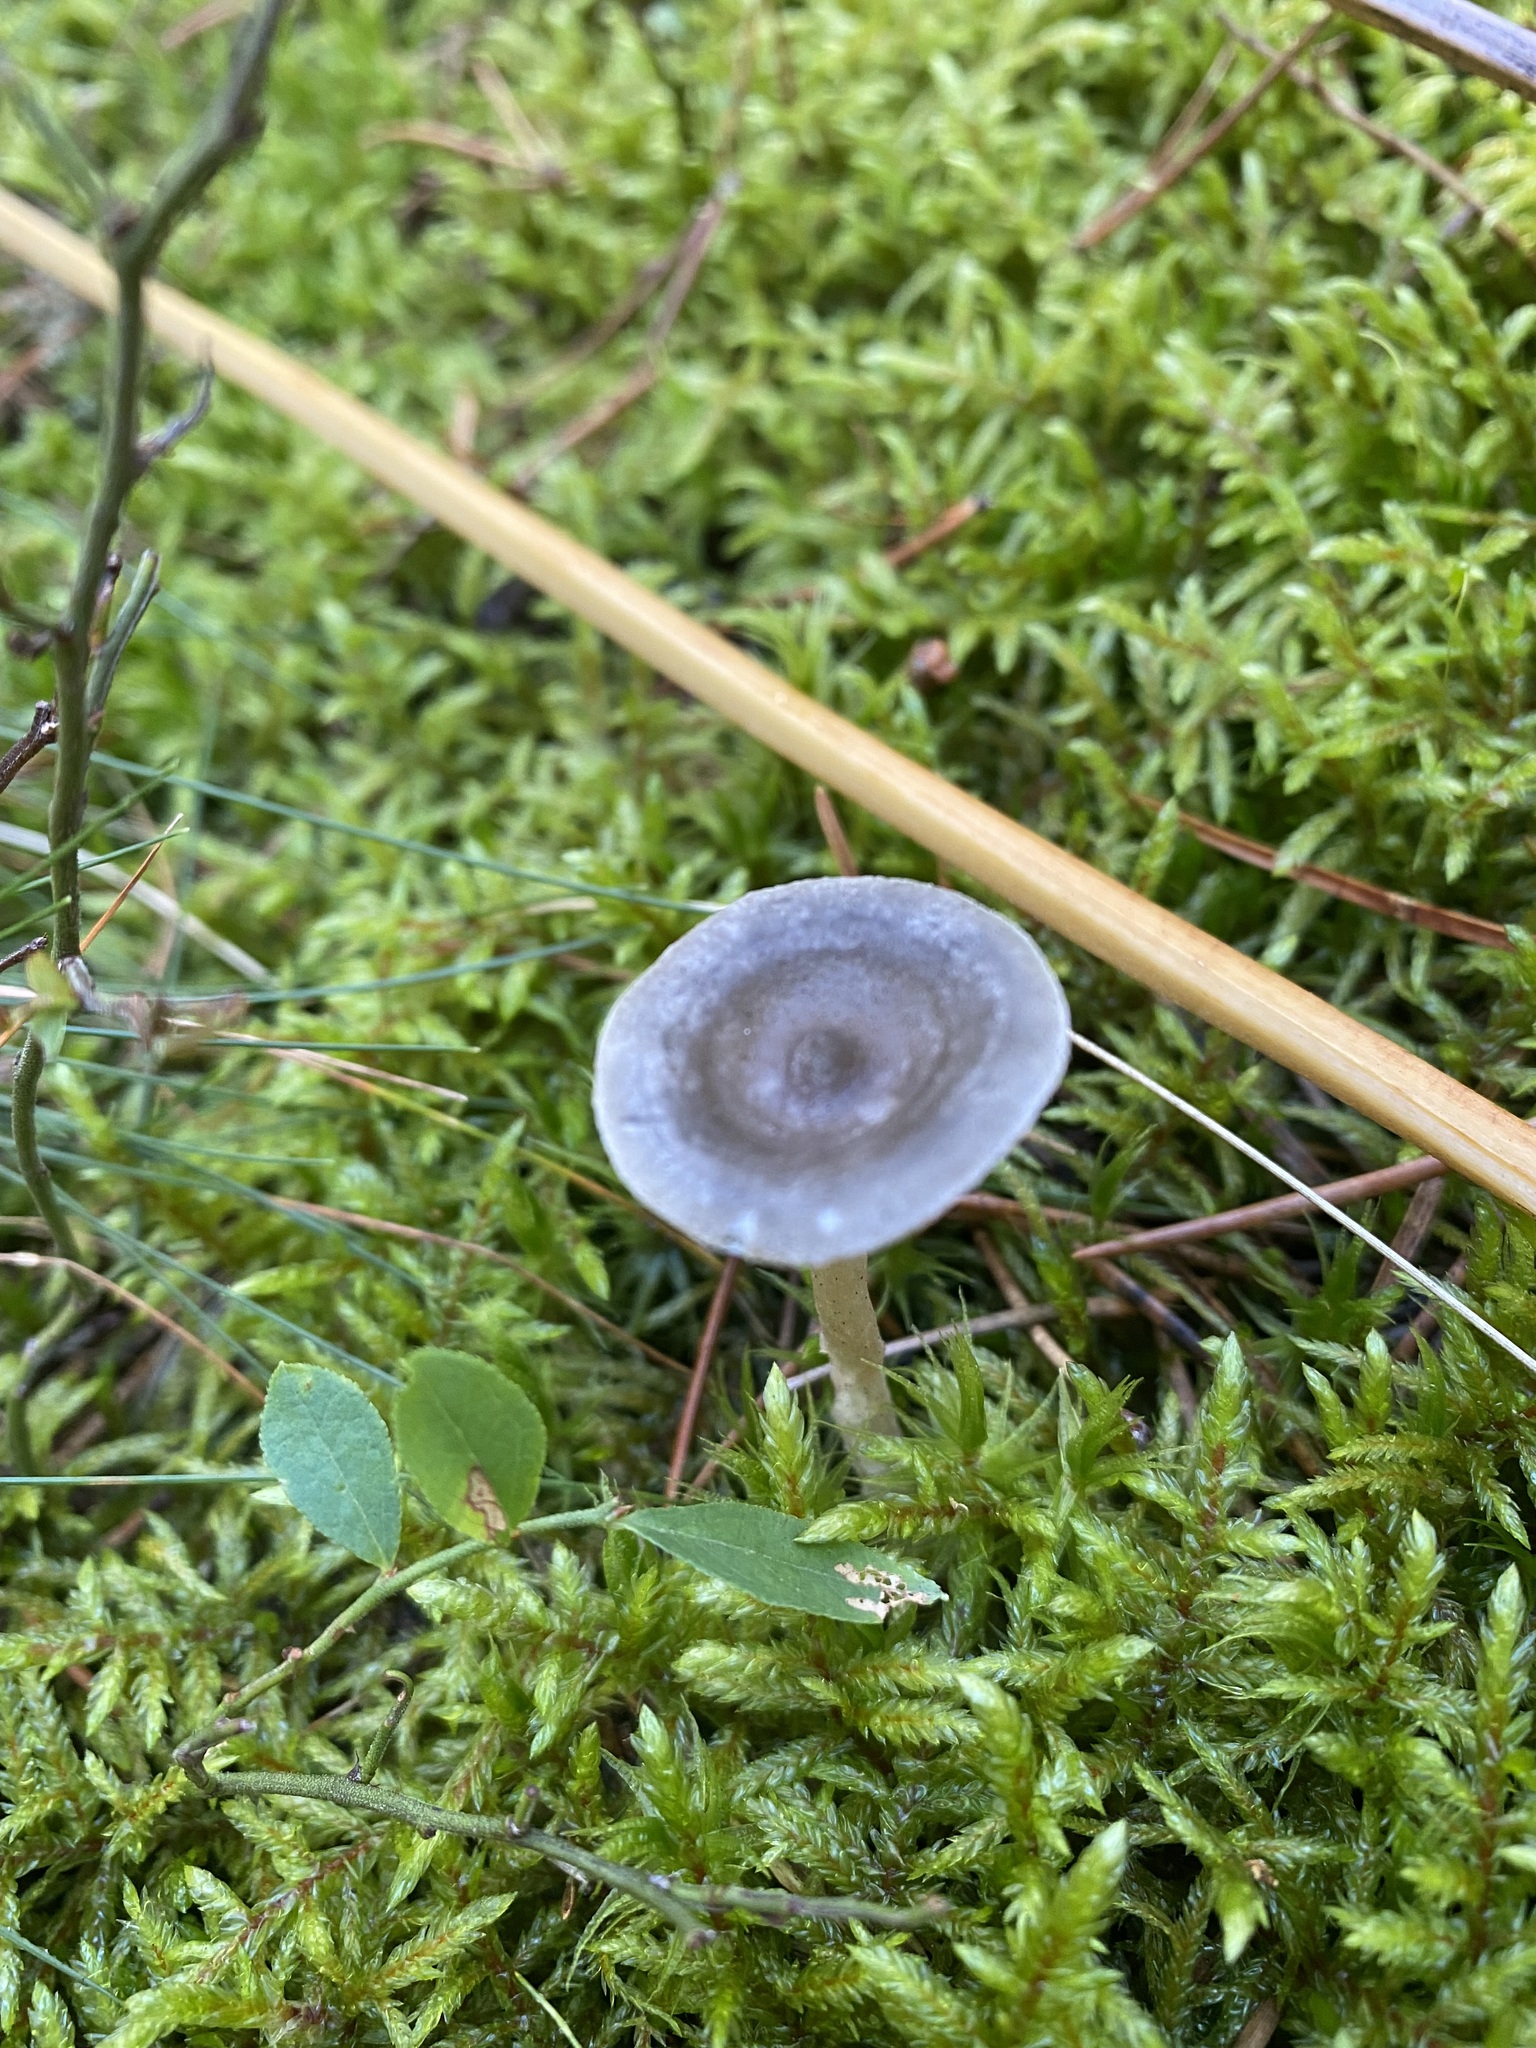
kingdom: Fungi
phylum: Basidiomycota
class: Agaricomycetes
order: Agaricales
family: Hygrophoraceae
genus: Cantharellula
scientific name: Cantharellula umbonata
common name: The humpback
